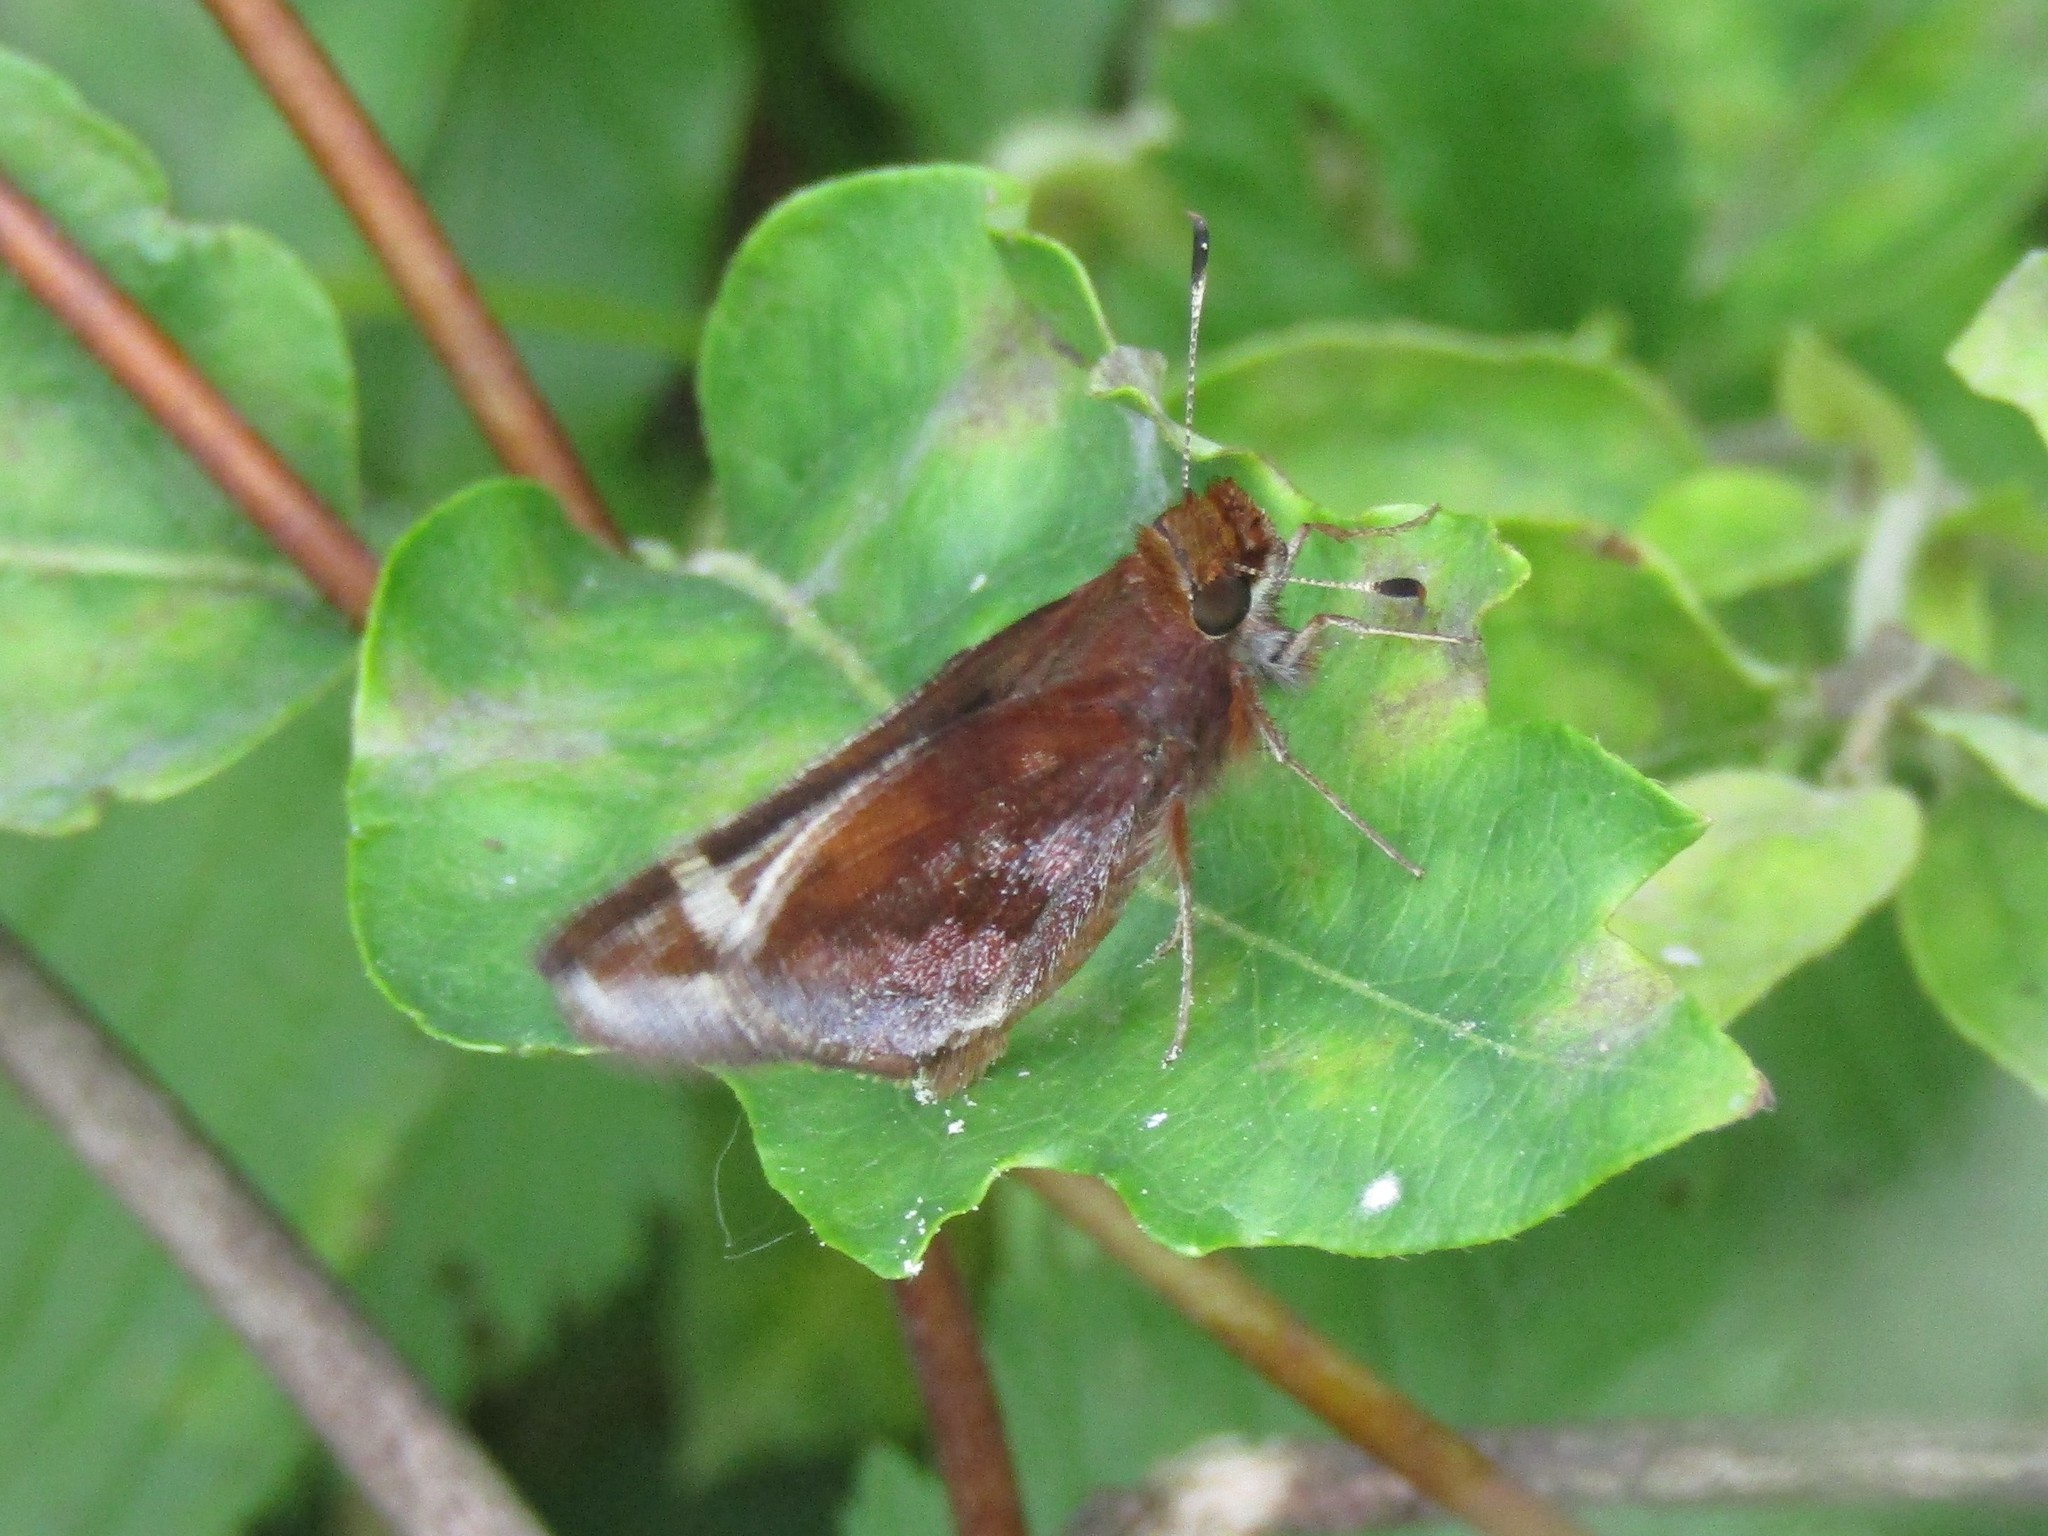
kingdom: Animalia
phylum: Arthropoda
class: Insecta
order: Lepidoptera
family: Hesperiidae
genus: Lon
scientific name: Lon zabulon
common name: Zabulon skipper
